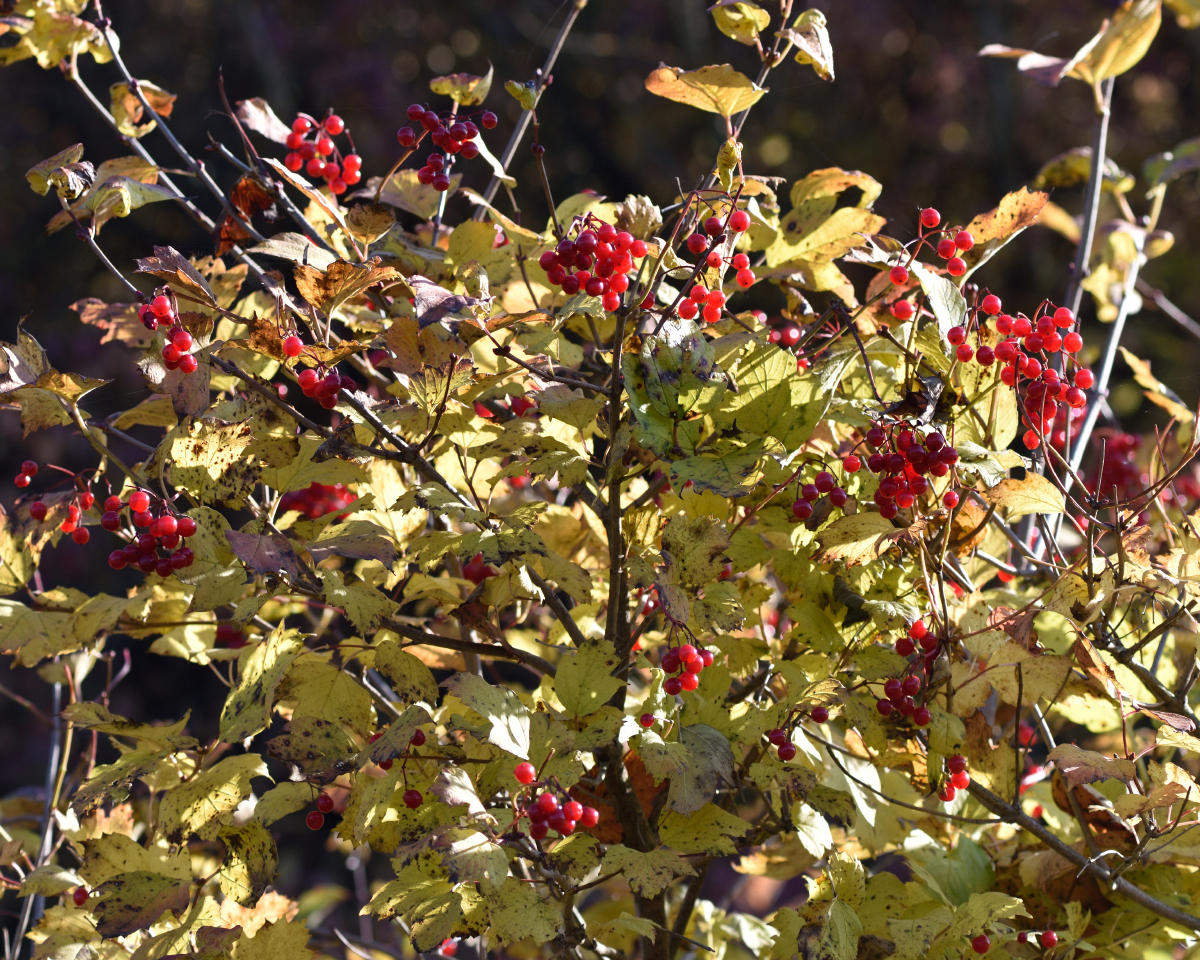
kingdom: Plantae
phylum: Tracheophyta
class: Magnoliopsida
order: Dipsacales
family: Viburnaceae
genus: Viburnum
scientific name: Viburnum opulus
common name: Guelder-rose
